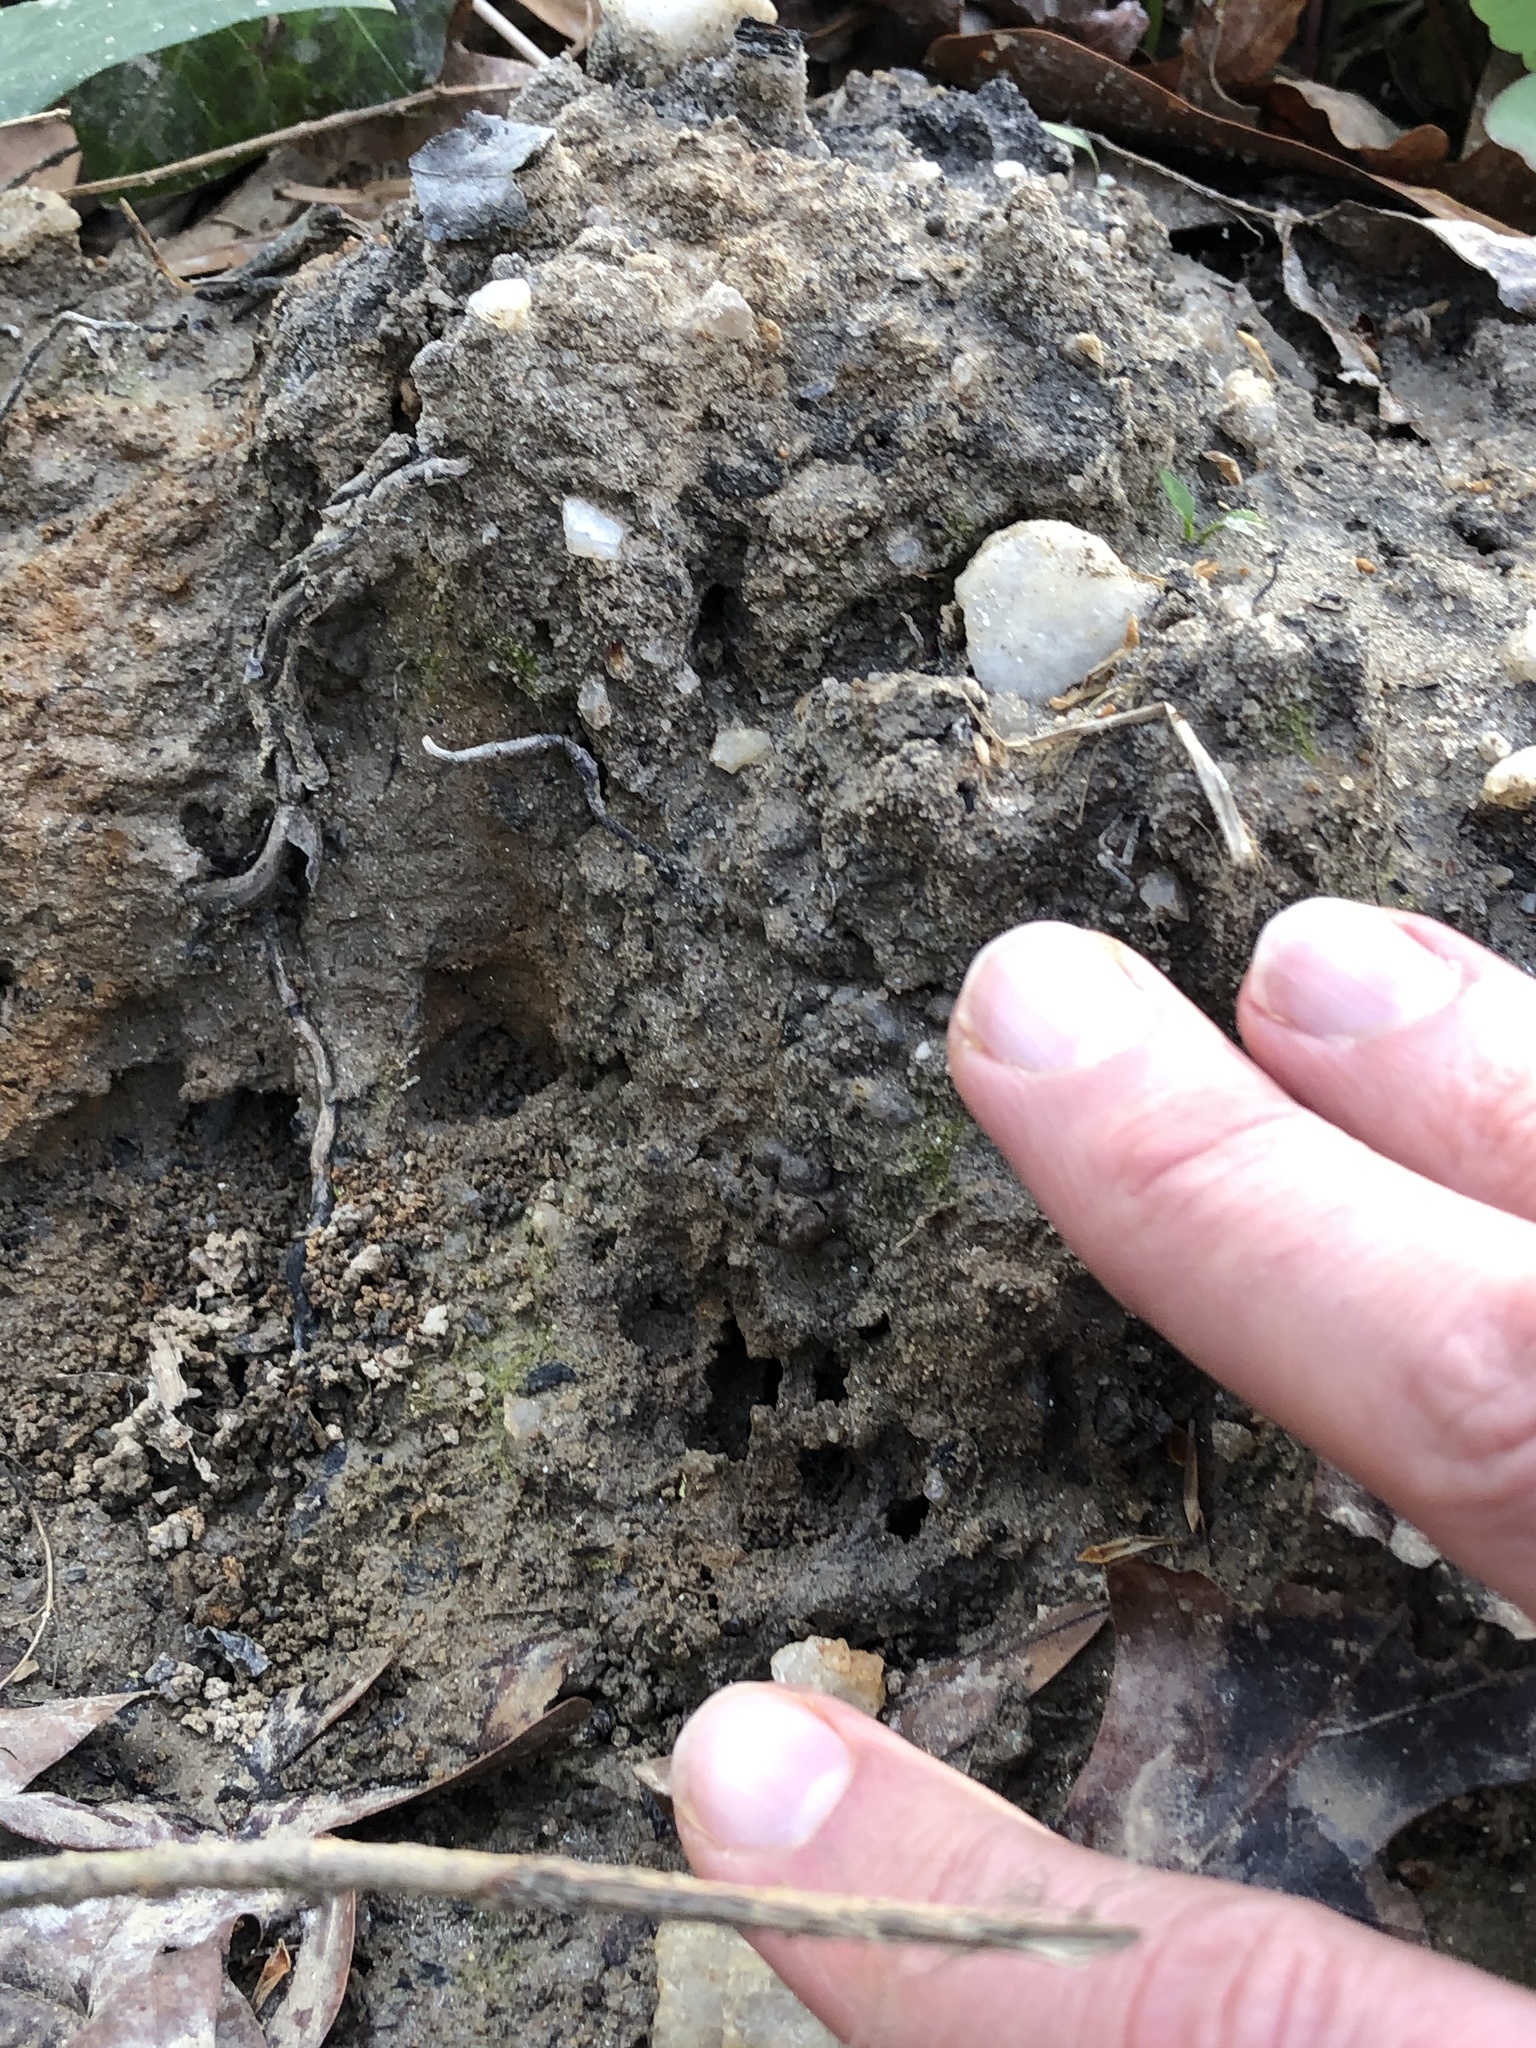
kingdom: Animalia
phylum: Arthropoda
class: Insecta
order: Hymenoptera
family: Megachilidae
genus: Osmia
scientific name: Osmia taurus
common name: Taurus mason bee
